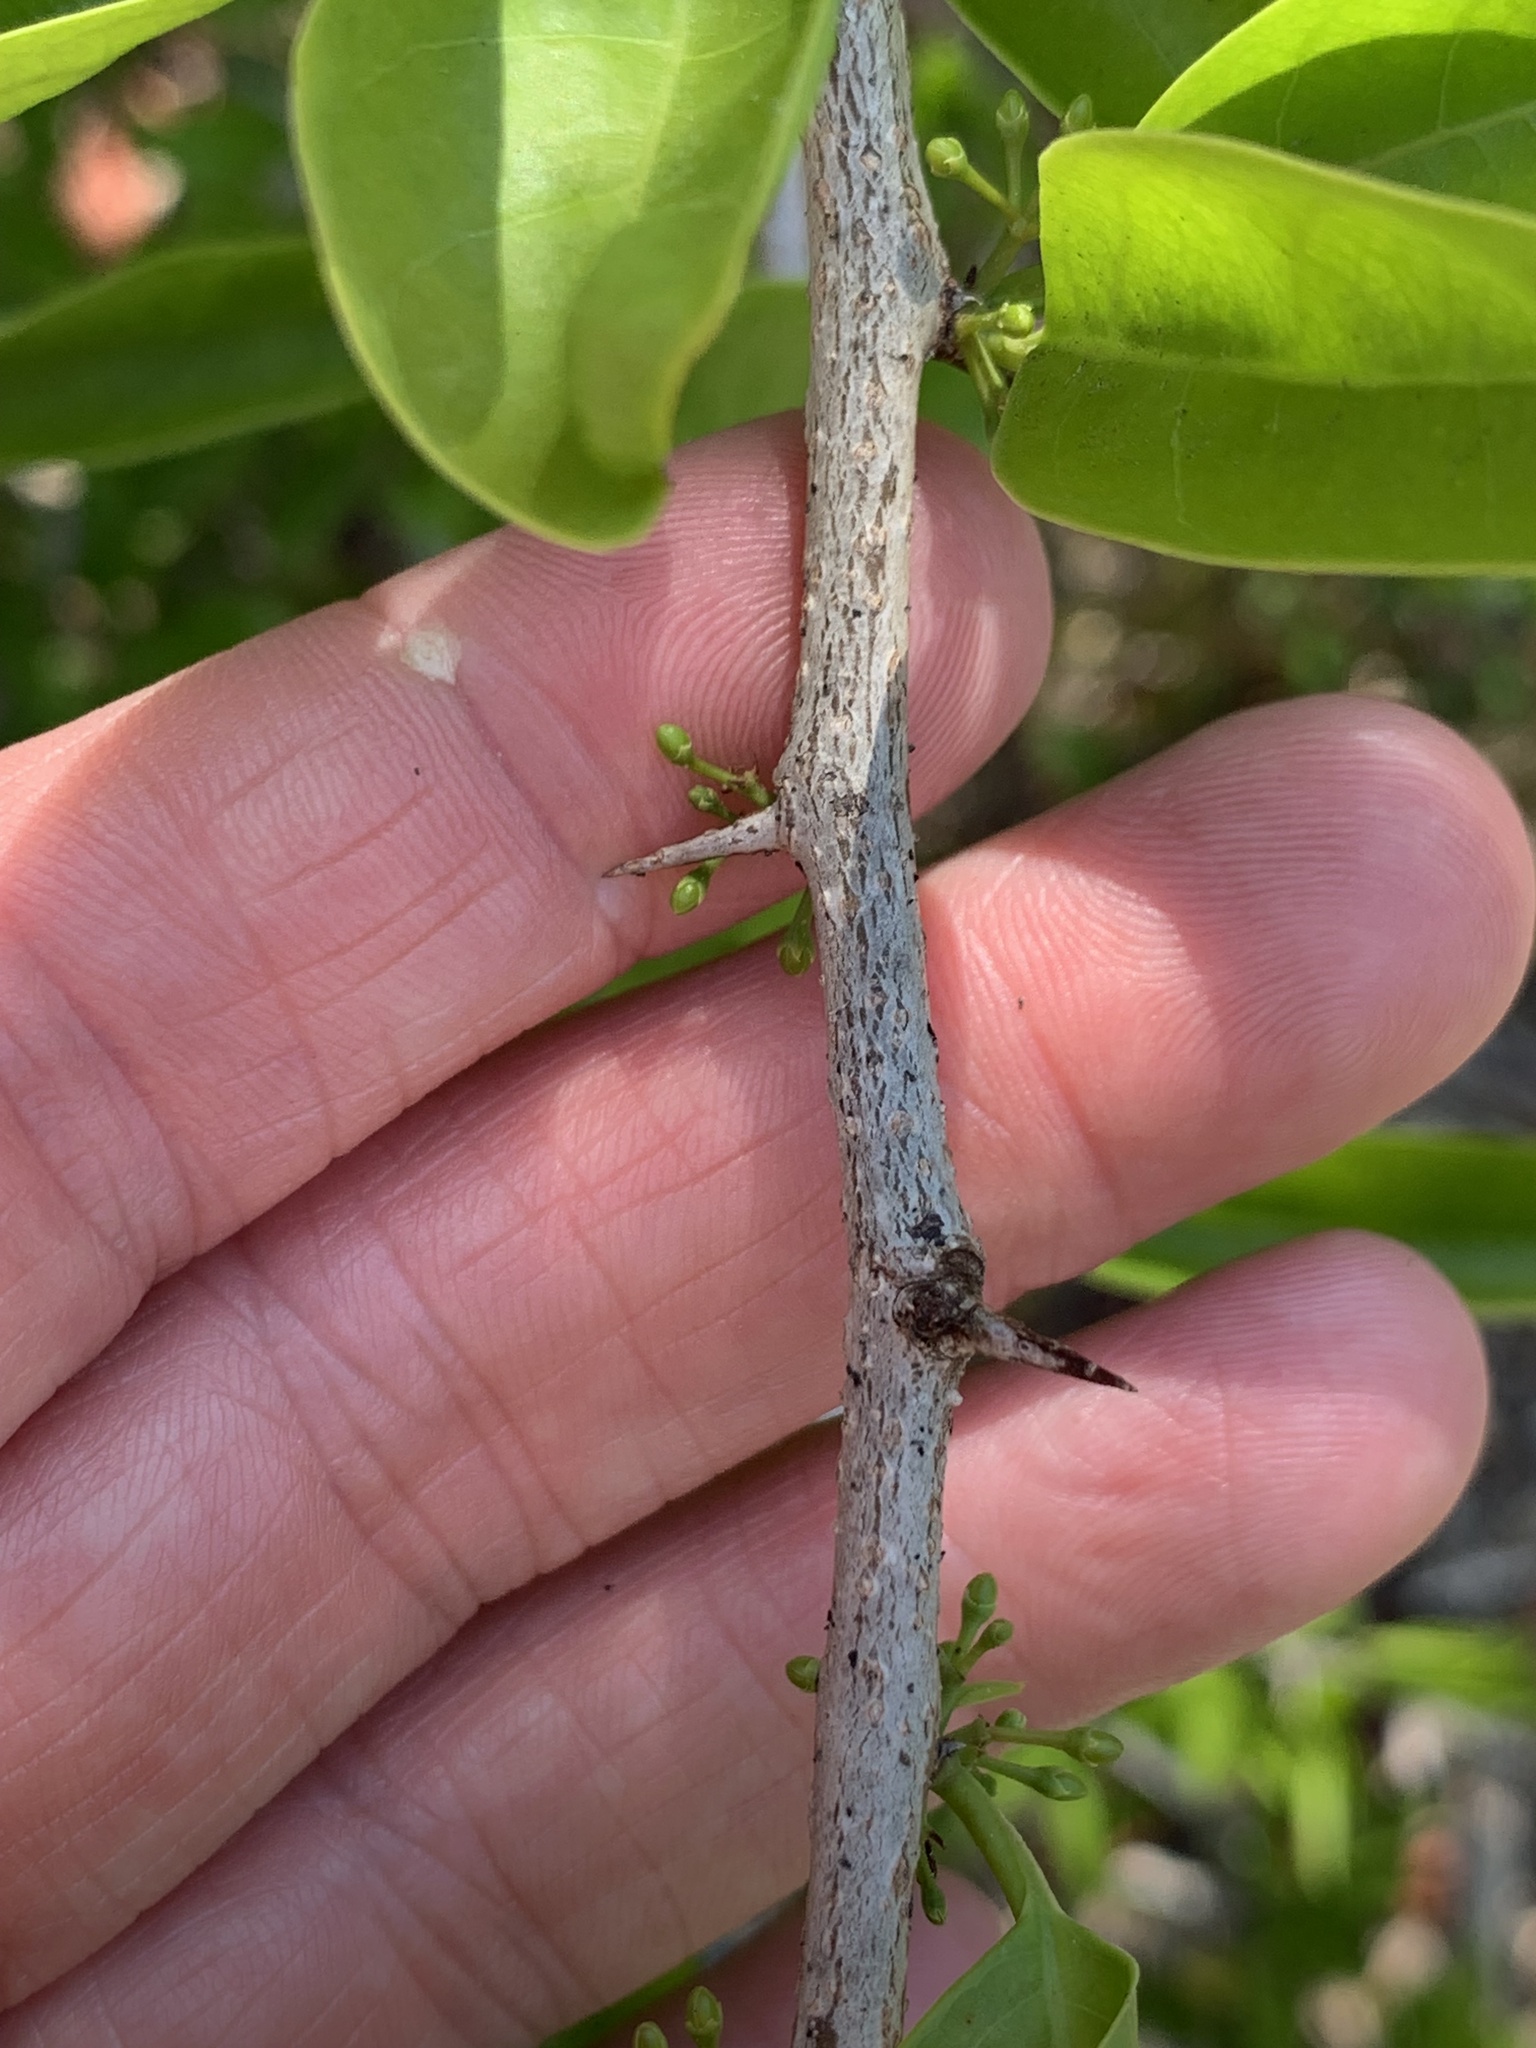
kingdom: Plantae
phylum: Tracheophyta
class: Magnoliopsida
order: Santalales
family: Ximeniaceae
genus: Ximenia
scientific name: Ximenia americana
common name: Tallowwood
